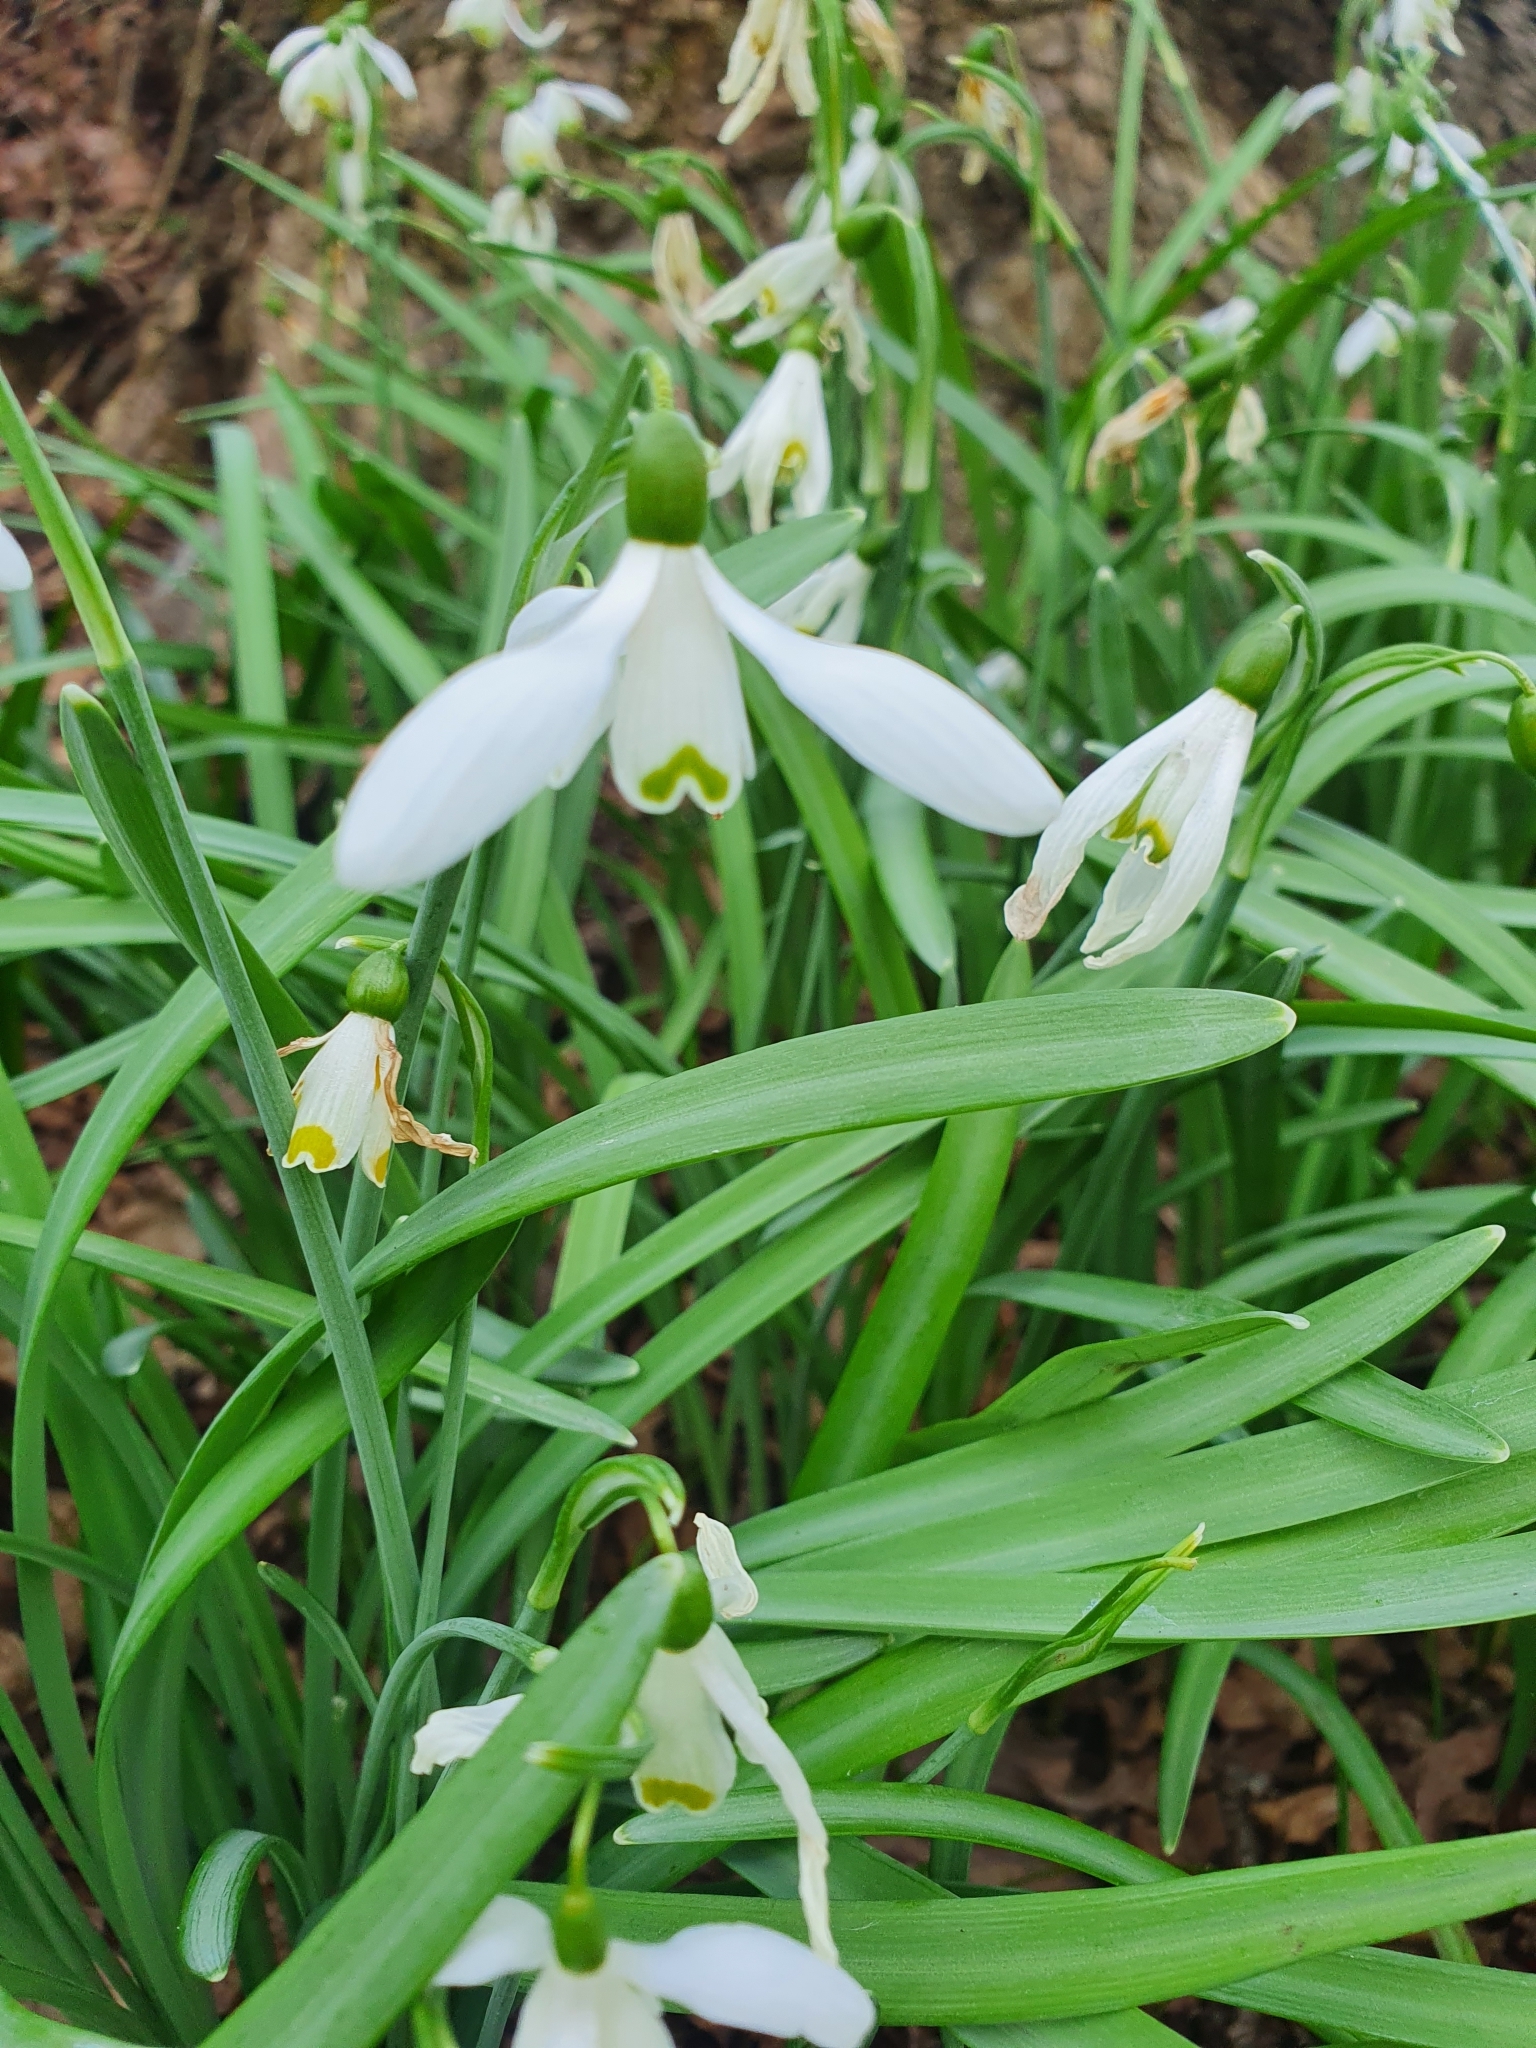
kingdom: Plantae
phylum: Tracheophyta
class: Liliopsida
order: Asparagales
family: Amaryllidaceae
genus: Galanthus
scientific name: Galanthus nivalis
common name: Snowdrop
